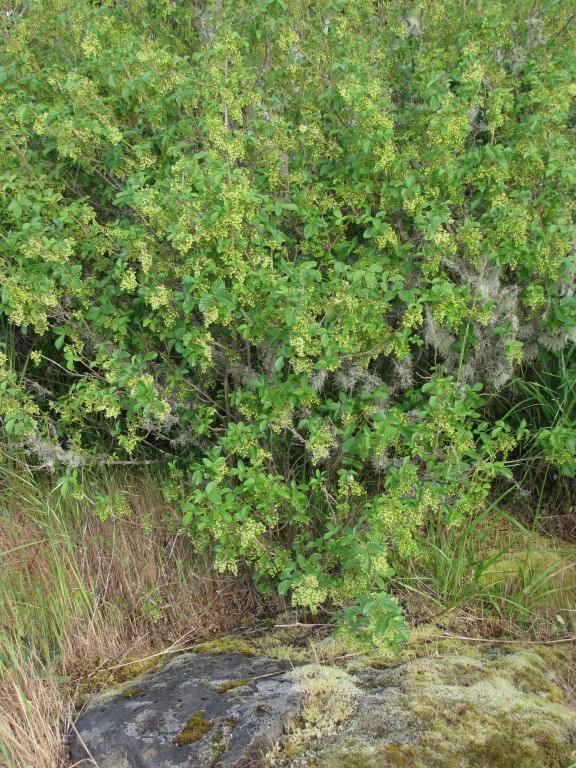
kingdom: Plantae
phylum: Tracheophyta
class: Magnoliopsida
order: Sapindales
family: Anacardiaceae
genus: Toxicodendron
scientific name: Toxicodendron diversilobum
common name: Pacific poison-oak
